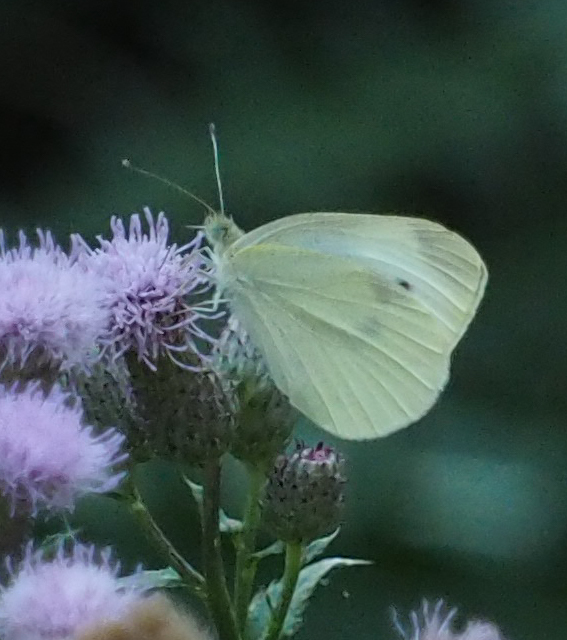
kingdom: Animalia
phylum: Arthropoda
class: Insecta
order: Lepidoptera
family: Pieridae
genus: Pieris
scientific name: Pieris rapae
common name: Small white
